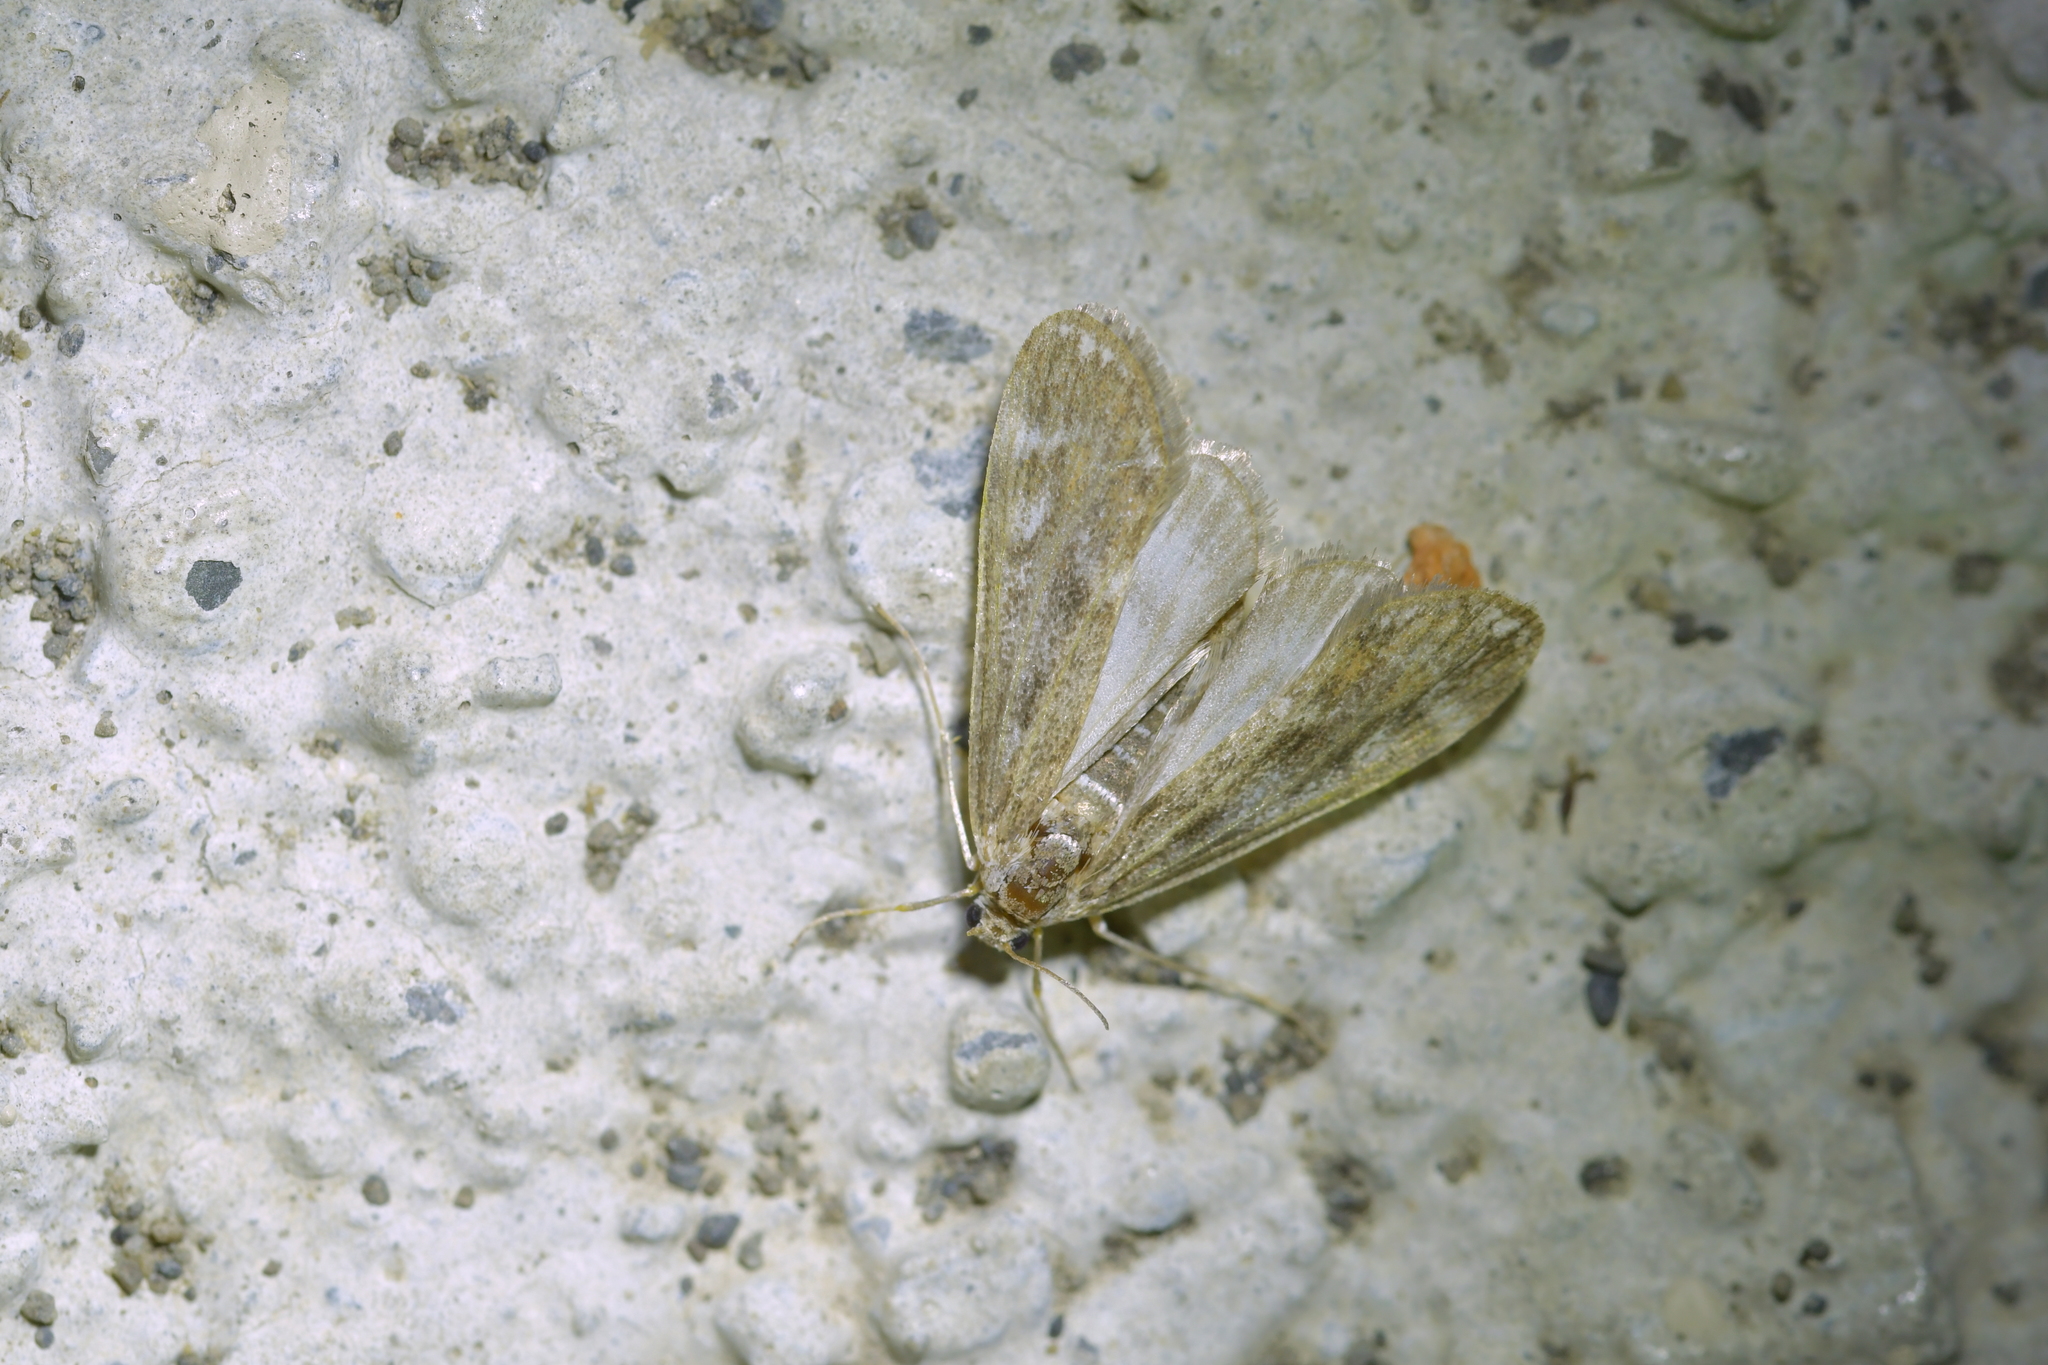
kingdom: Animalia
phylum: Arthropoda
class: Insecta
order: Lepidoptera
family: Crambidae
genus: Hygraula
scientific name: Hygraula nitens
